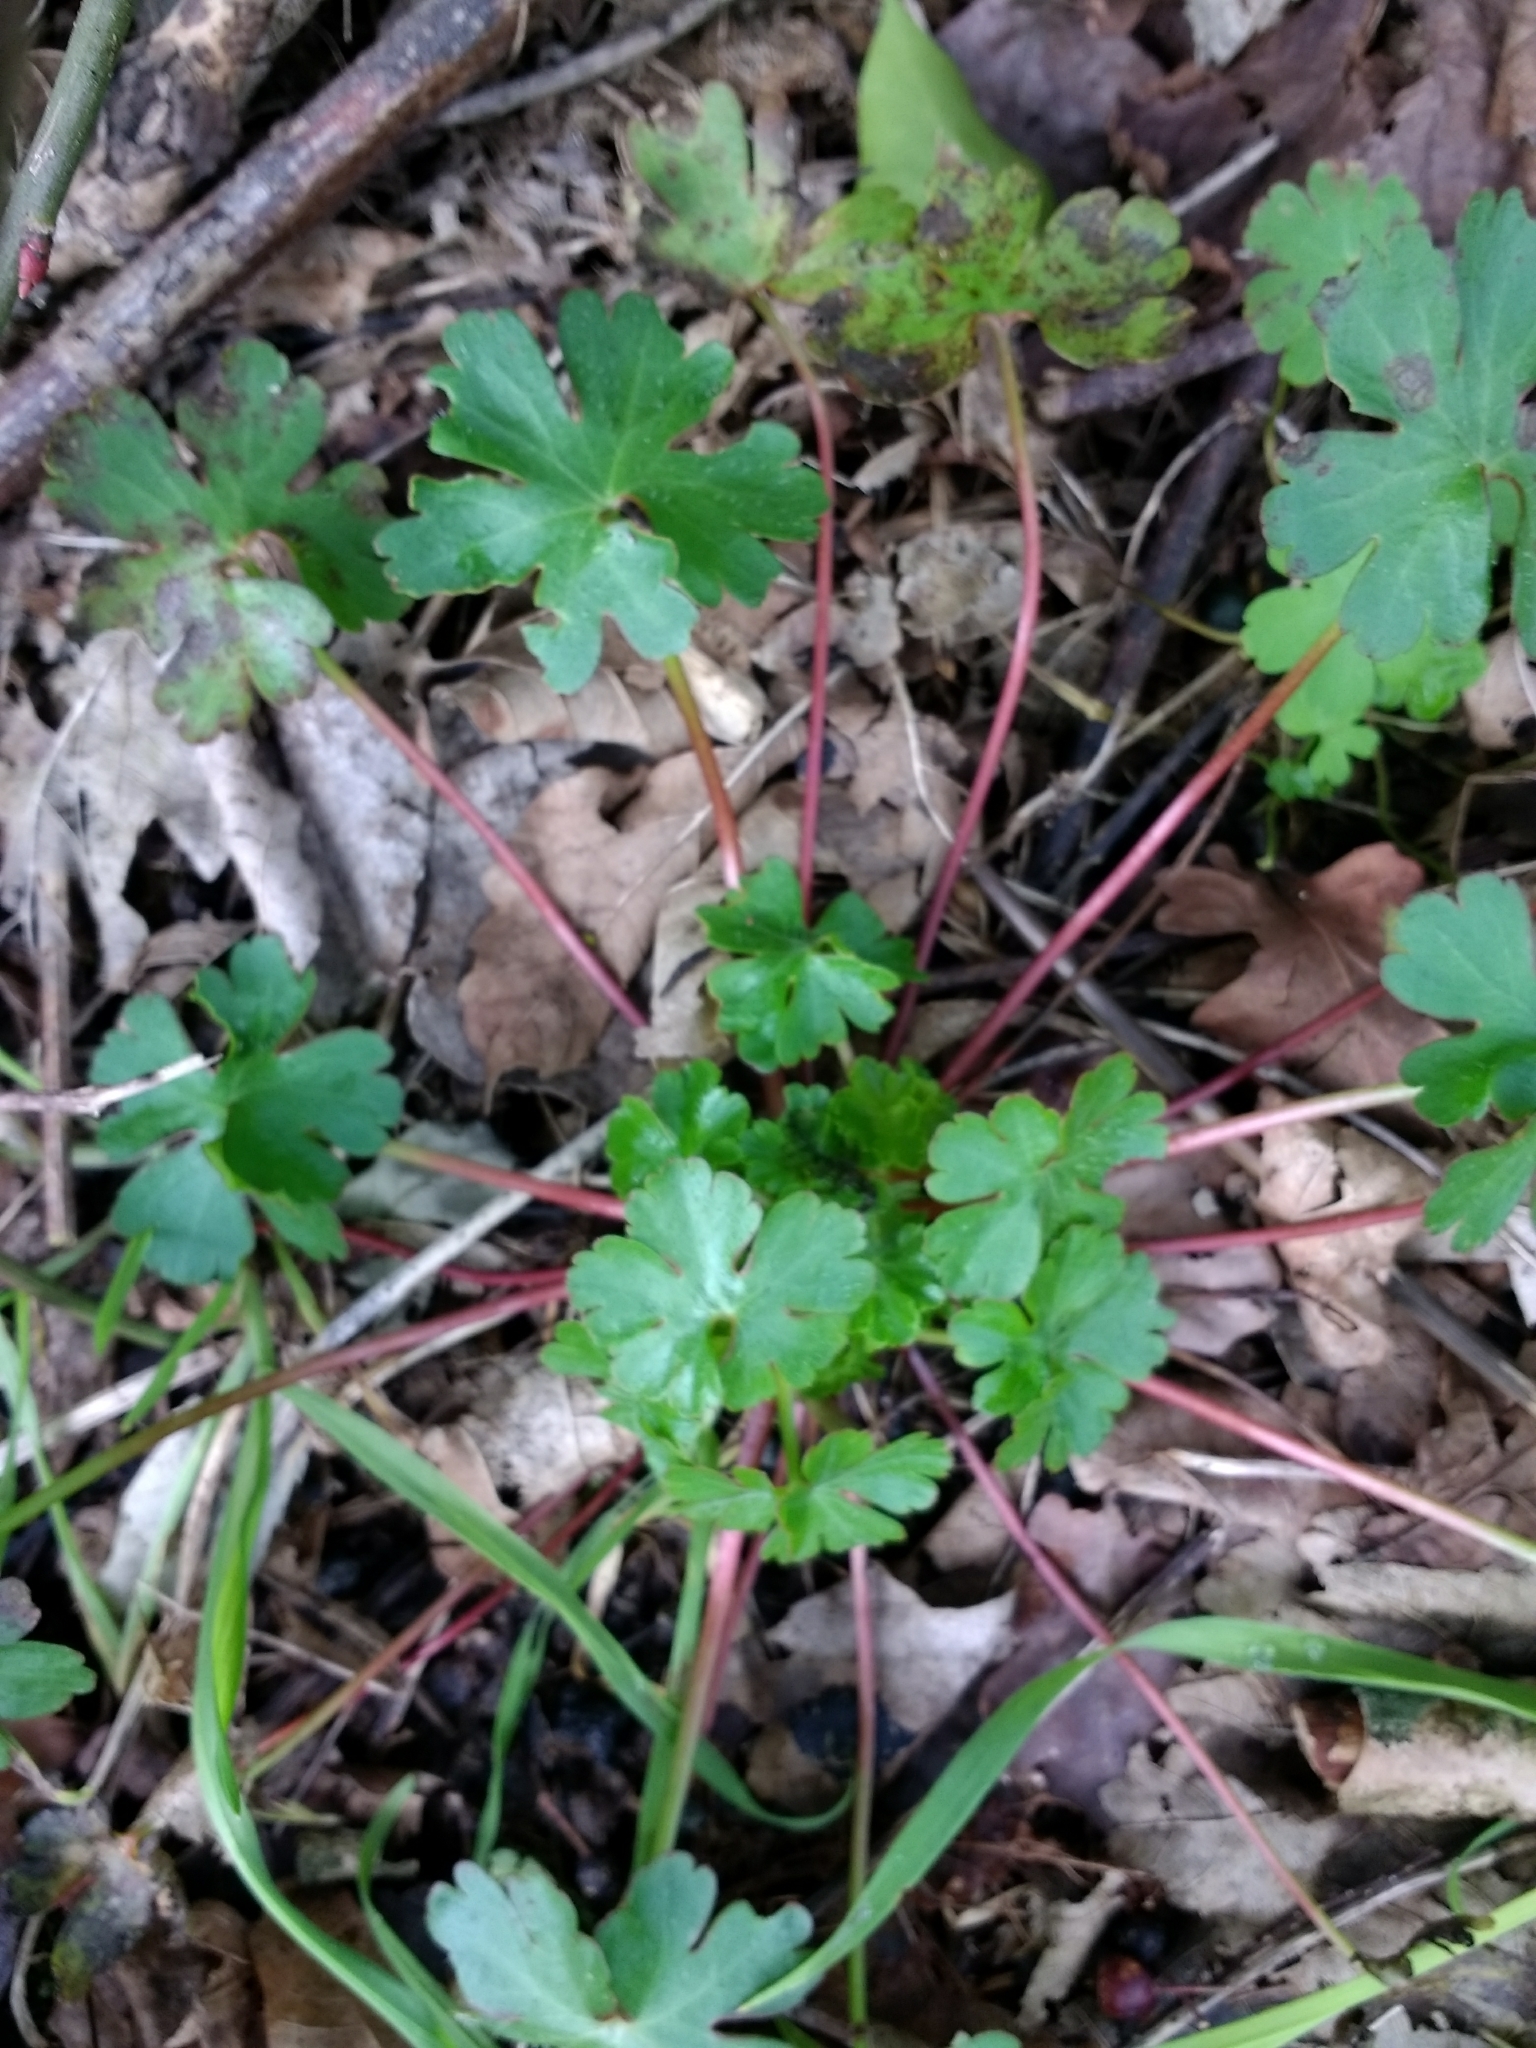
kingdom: Plantae
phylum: Tracheophyta
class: Magnoliopsida
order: Geraniales
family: Geraniaceae
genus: Geranium
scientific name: Geranium lucidum
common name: Shining crane's-bill
